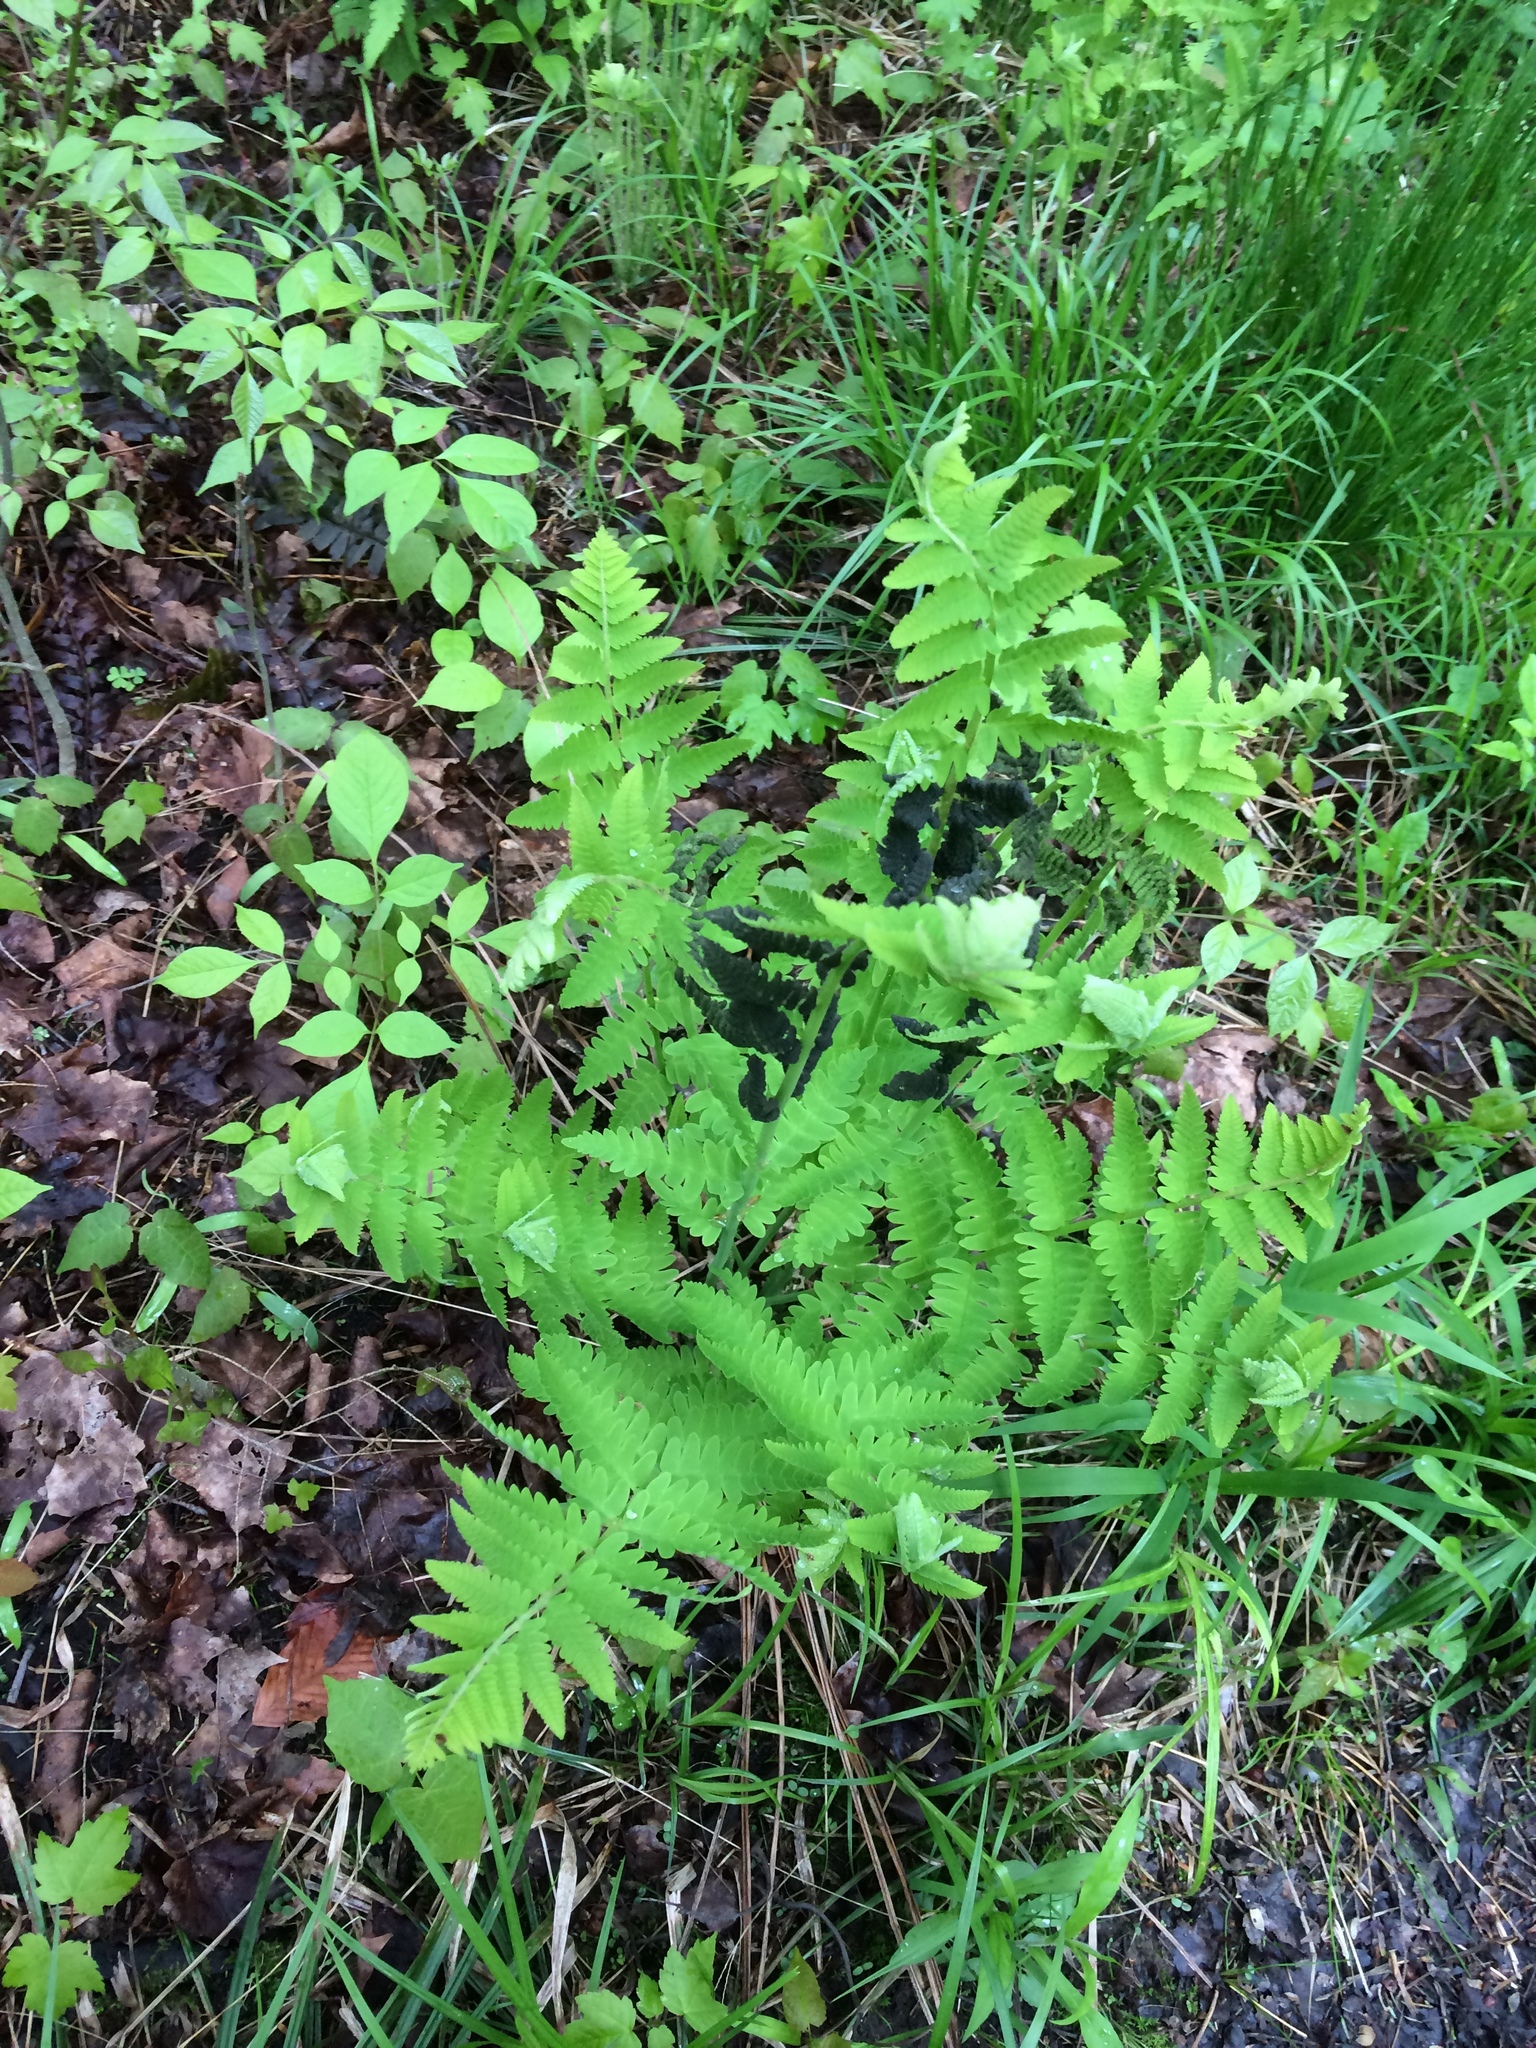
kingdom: Plantae
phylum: Tracheophyta
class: Polypodiopsida
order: Osmundales
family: Osmundaceae
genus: Claytosmunda
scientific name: Claytosmunda claytoniana
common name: Clayton's fern
